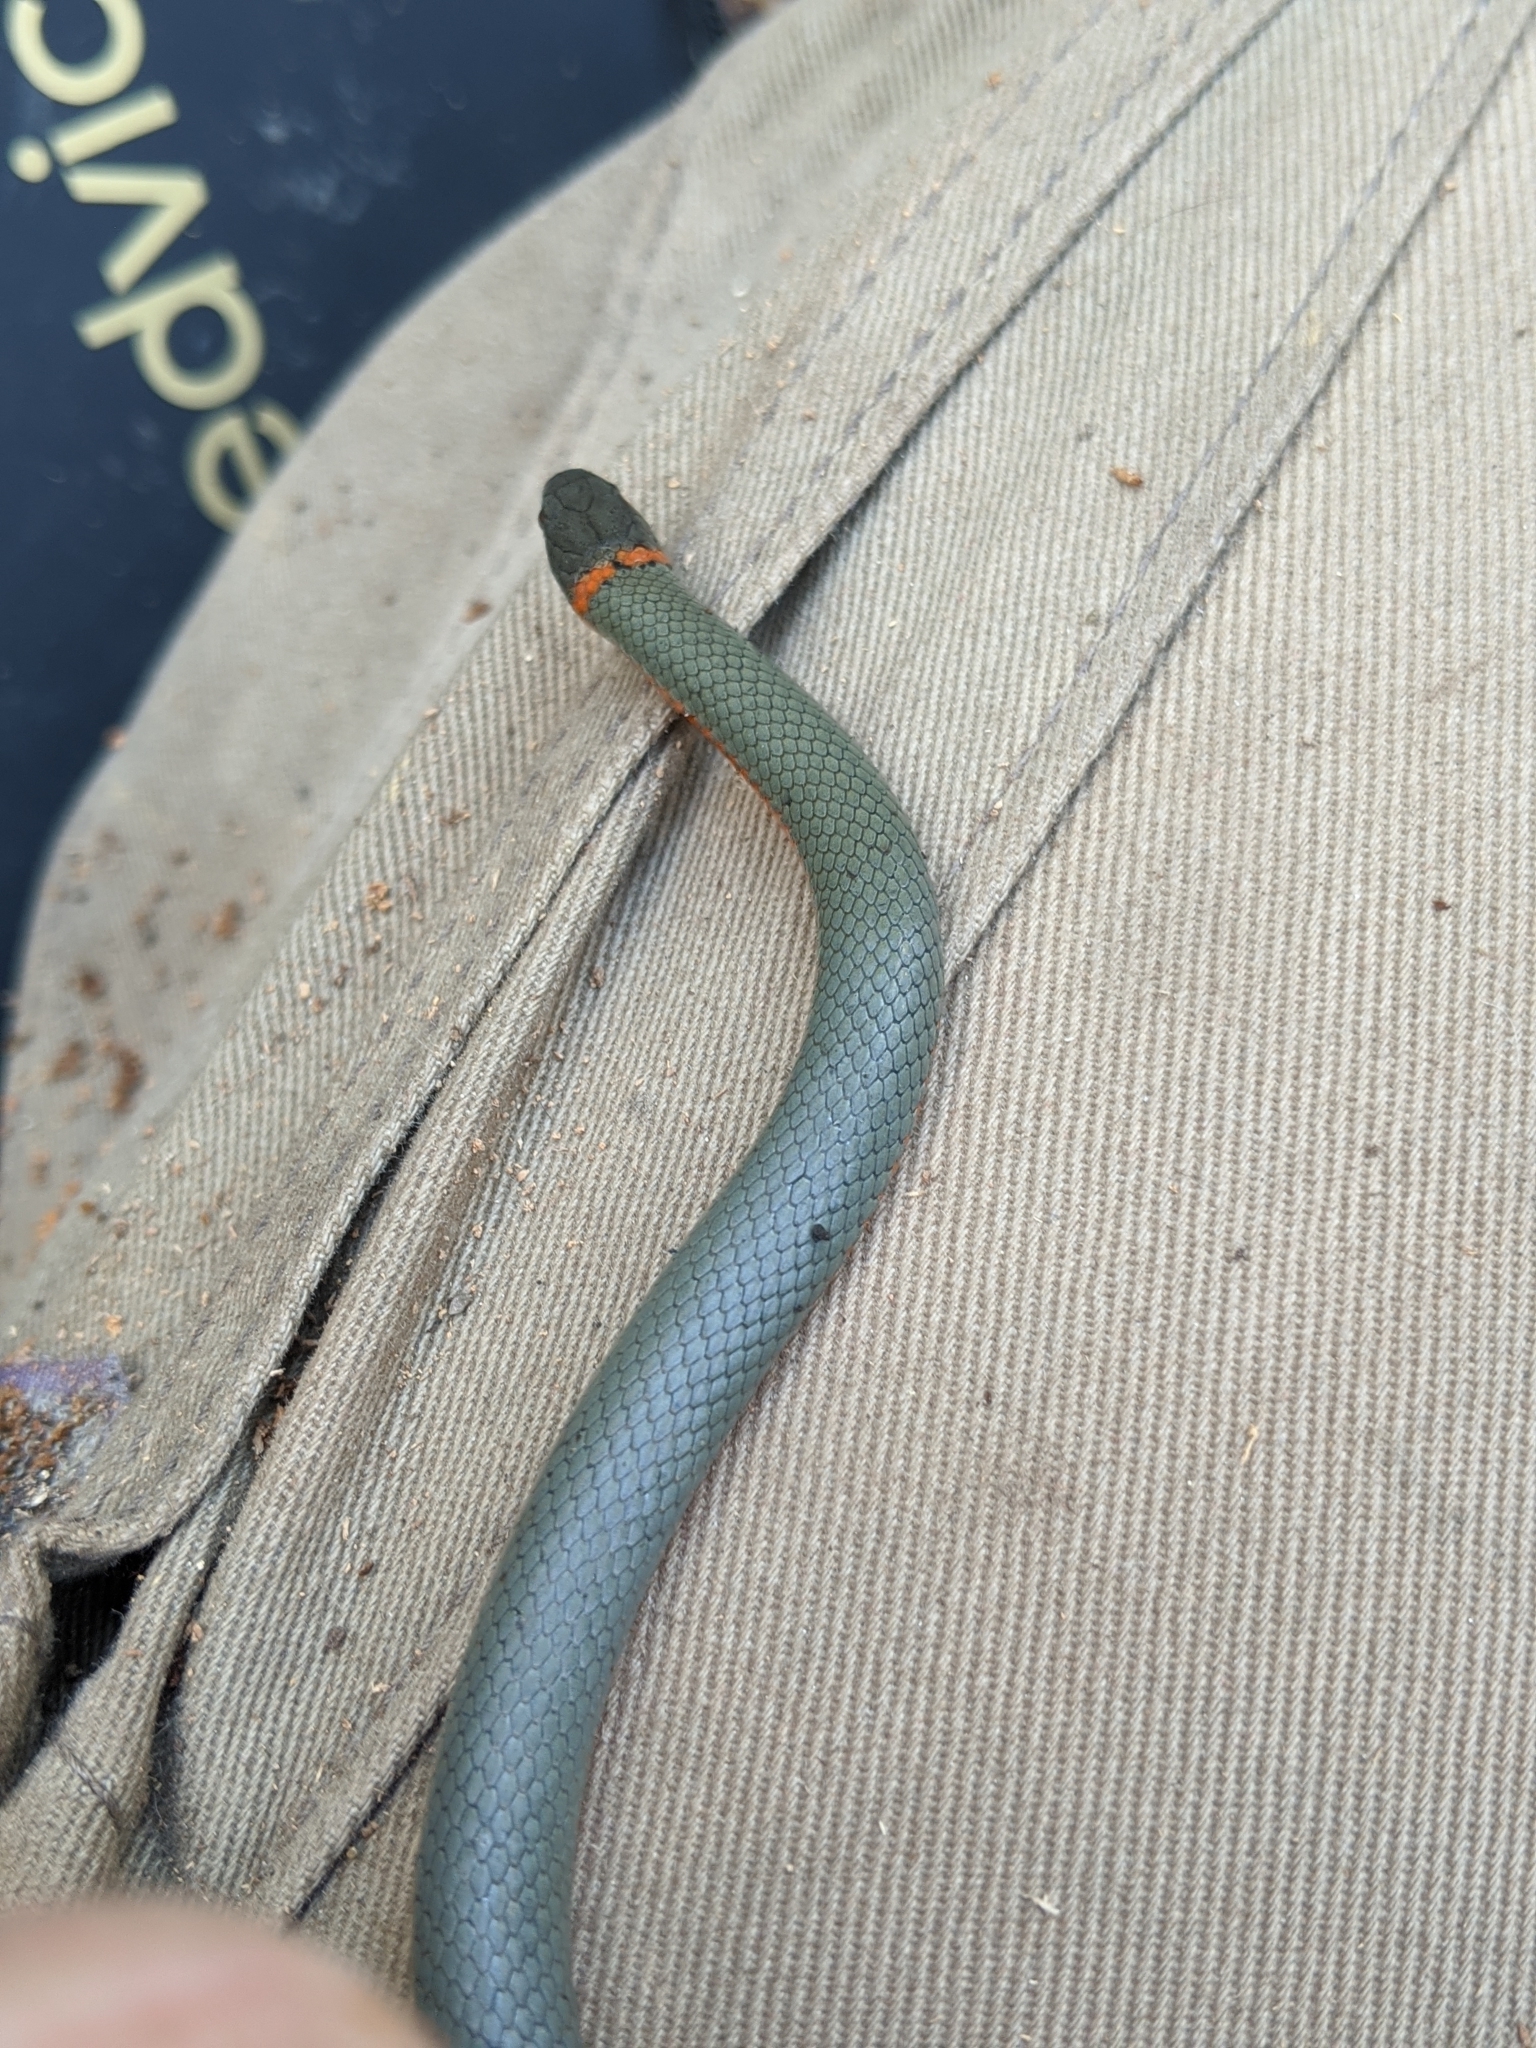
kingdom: Animalia
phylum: Chordata
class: Squamata
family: Colubridae
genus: Diadophis
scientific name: Diadophis punctatus
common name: Ringneck snake
